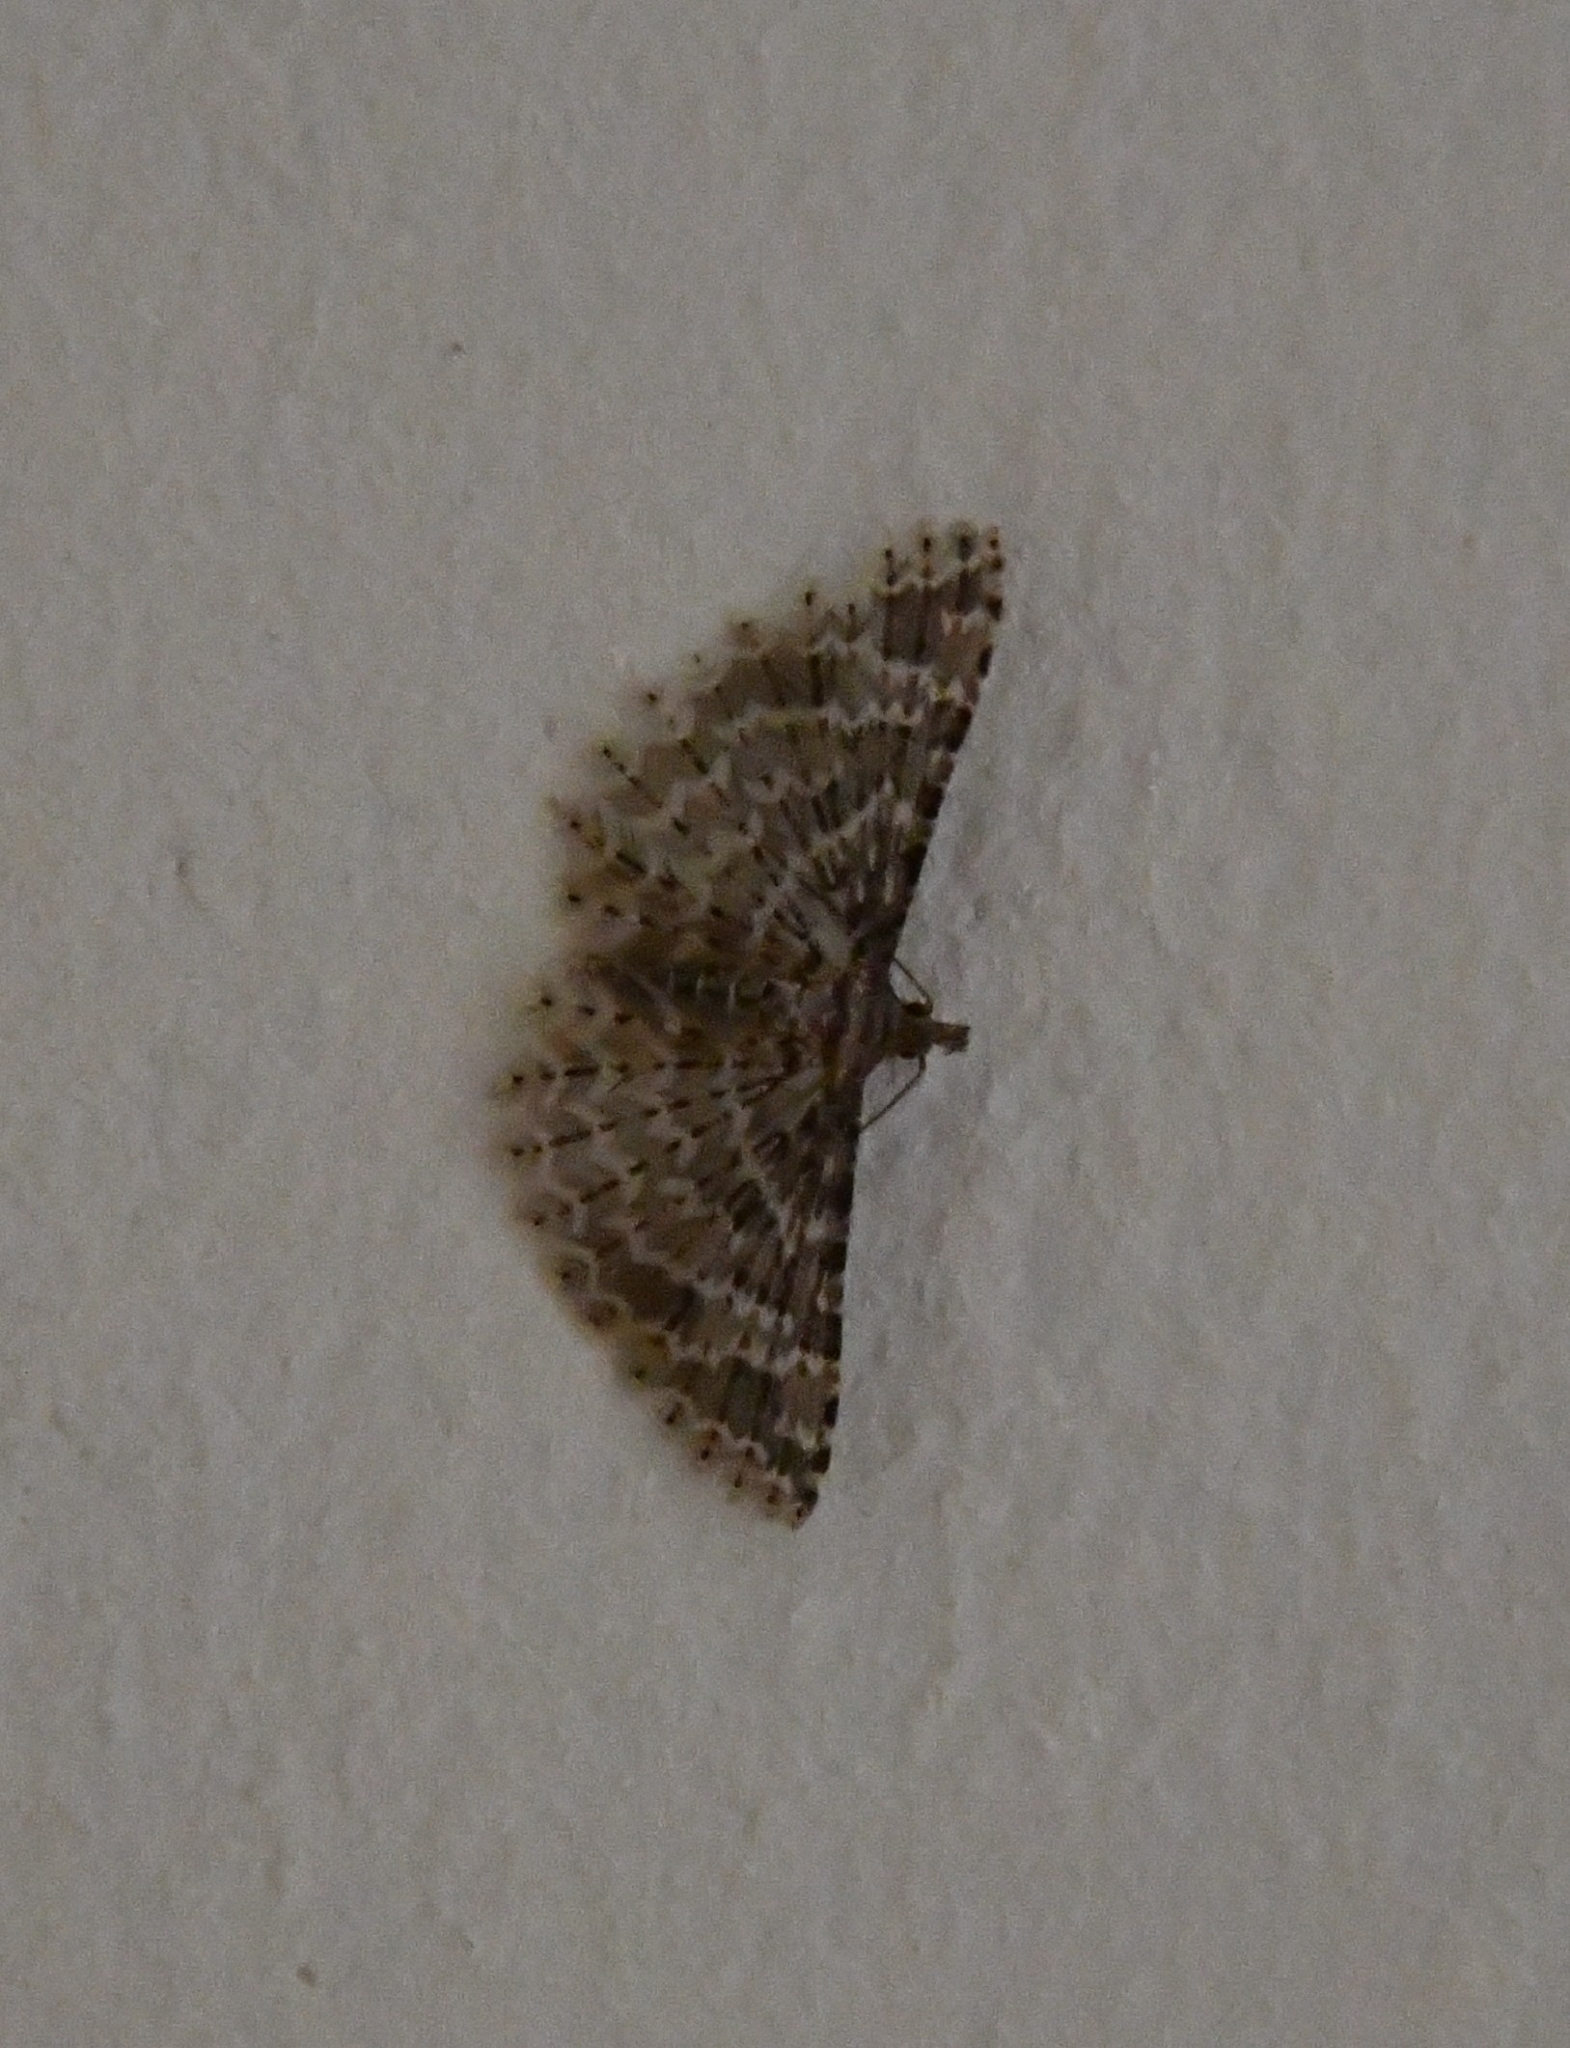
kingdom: Animalia
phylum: Arthropoda
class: Insecta
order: Lepidoptera
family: Alucitidae
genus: Alucita
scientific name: Alucita hexadactyla
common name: Twenty-plume moth
